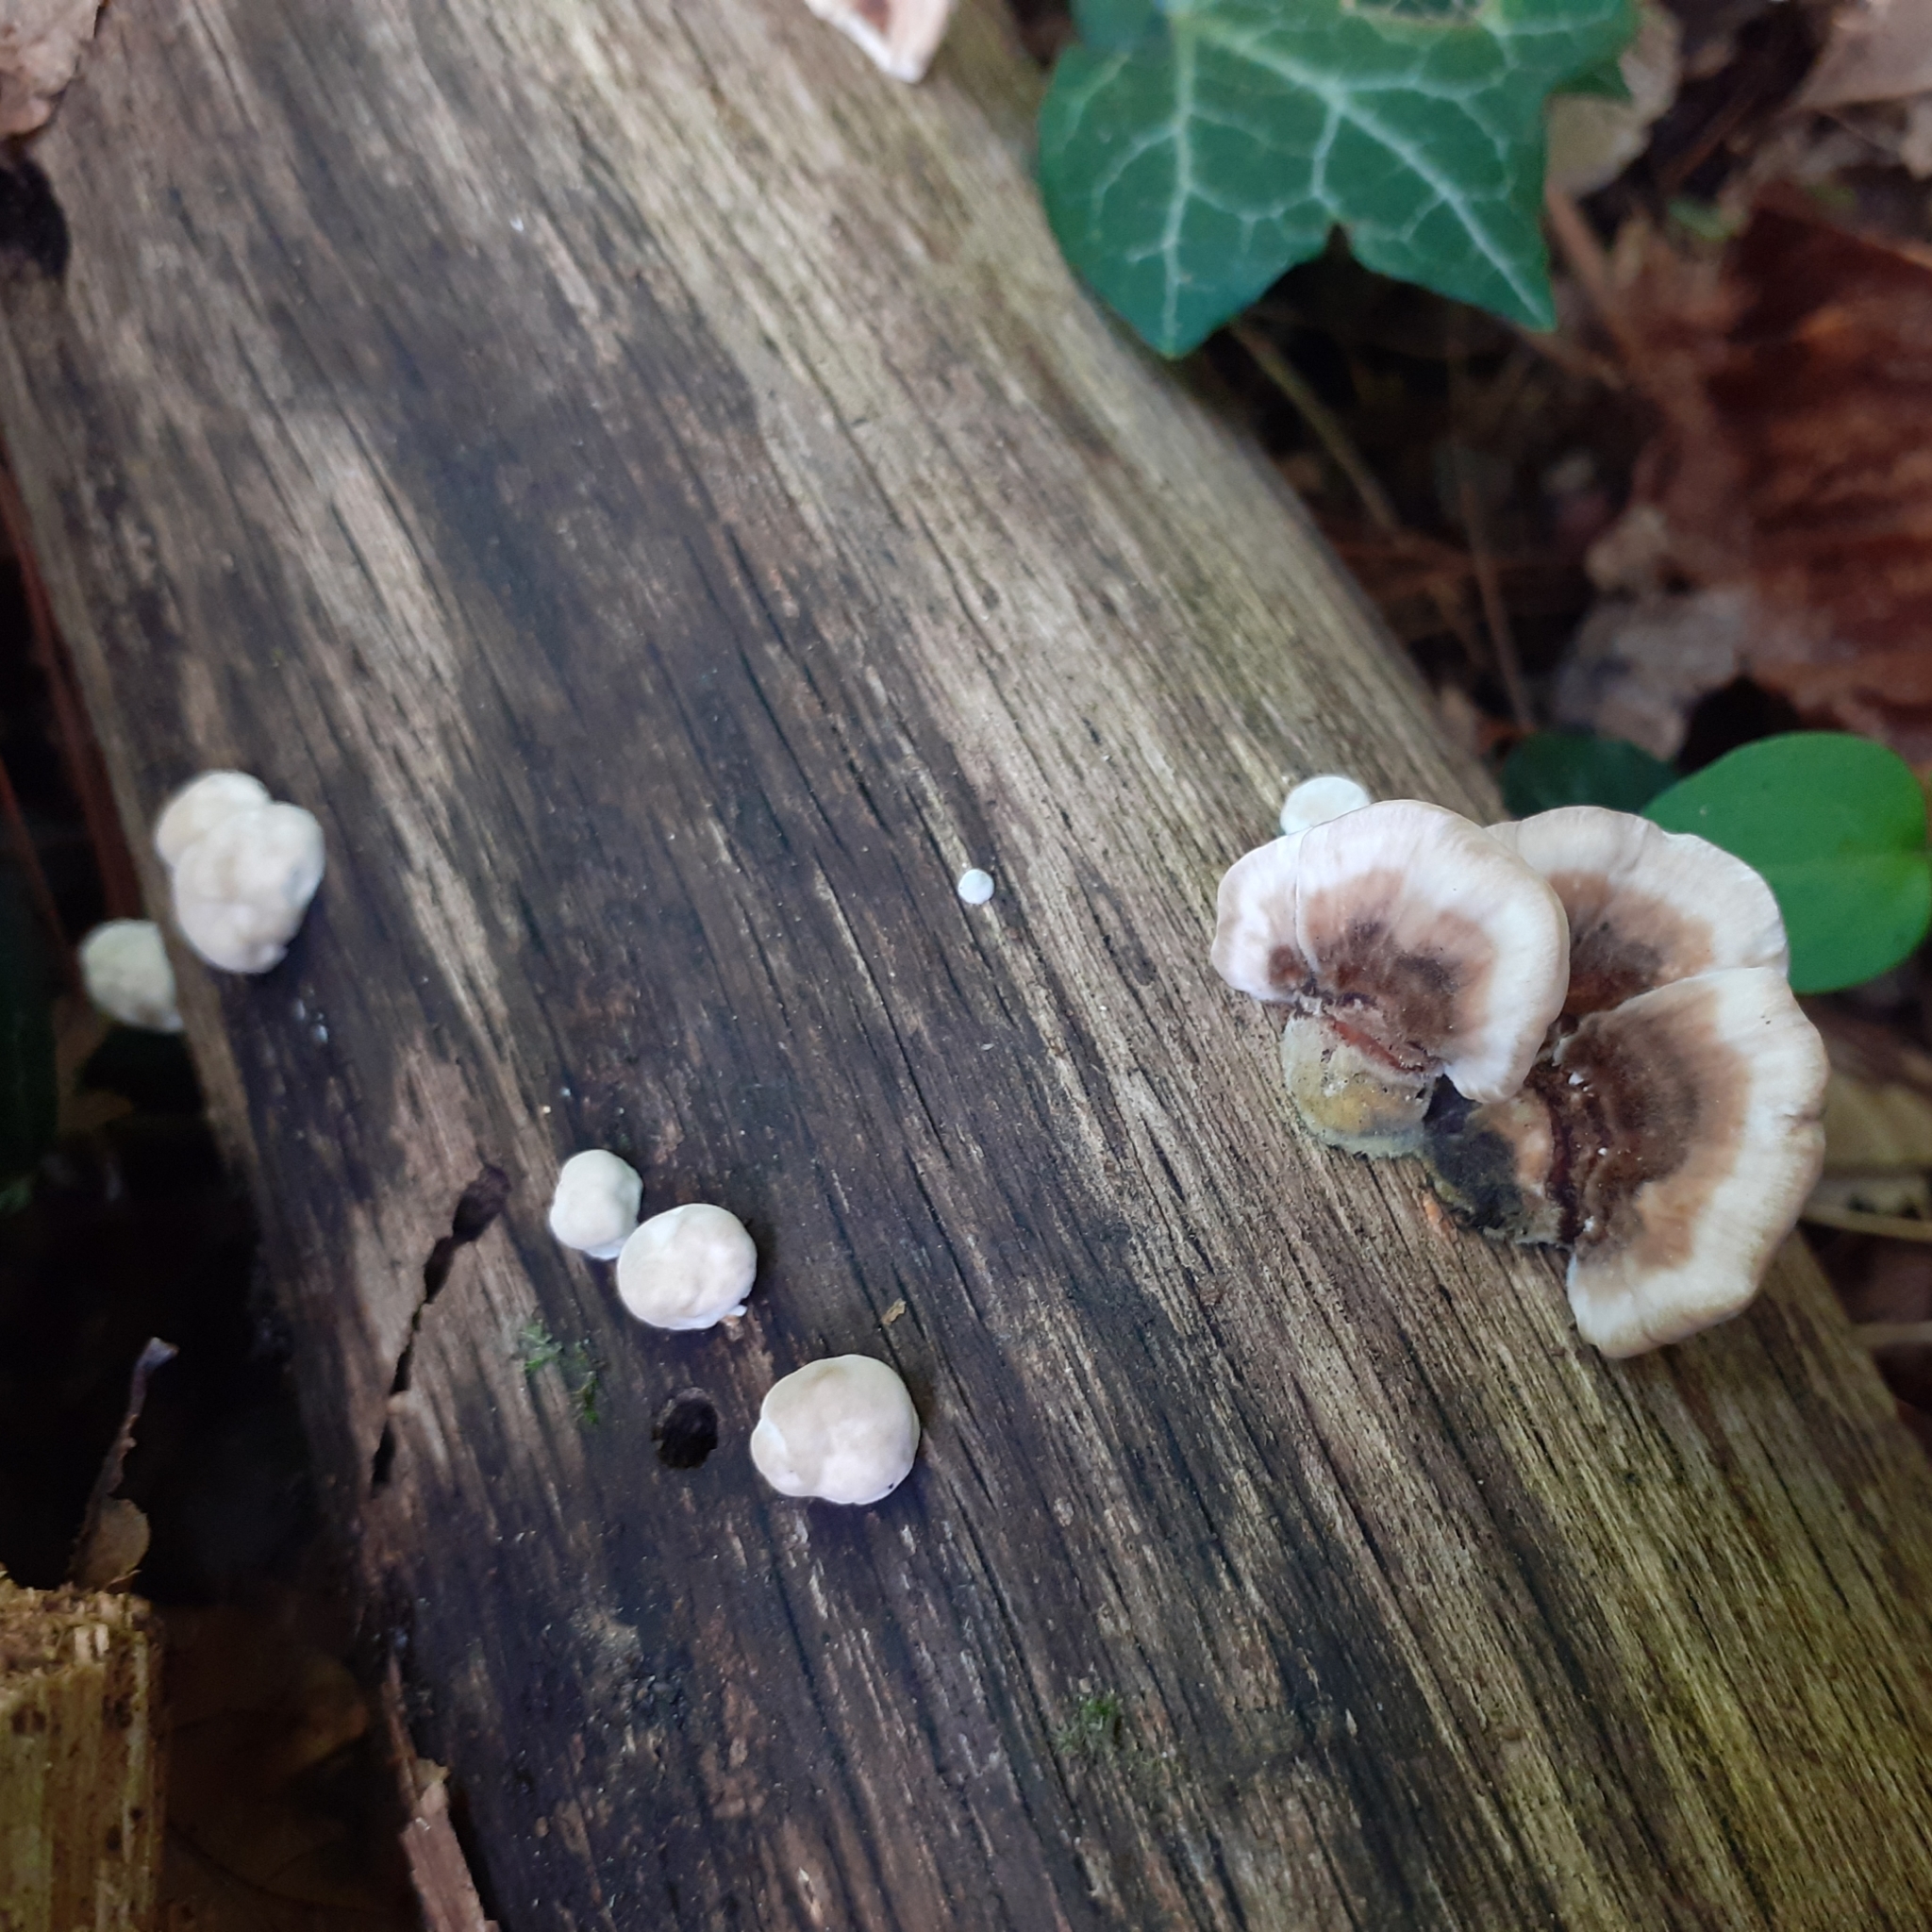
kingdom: Fungi
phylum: Basidiomycota
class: Agaricomycetes
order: Polyporales
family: Polyporaceae
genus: Trametes
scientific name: Trametes versicolor
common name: Turkeytail
